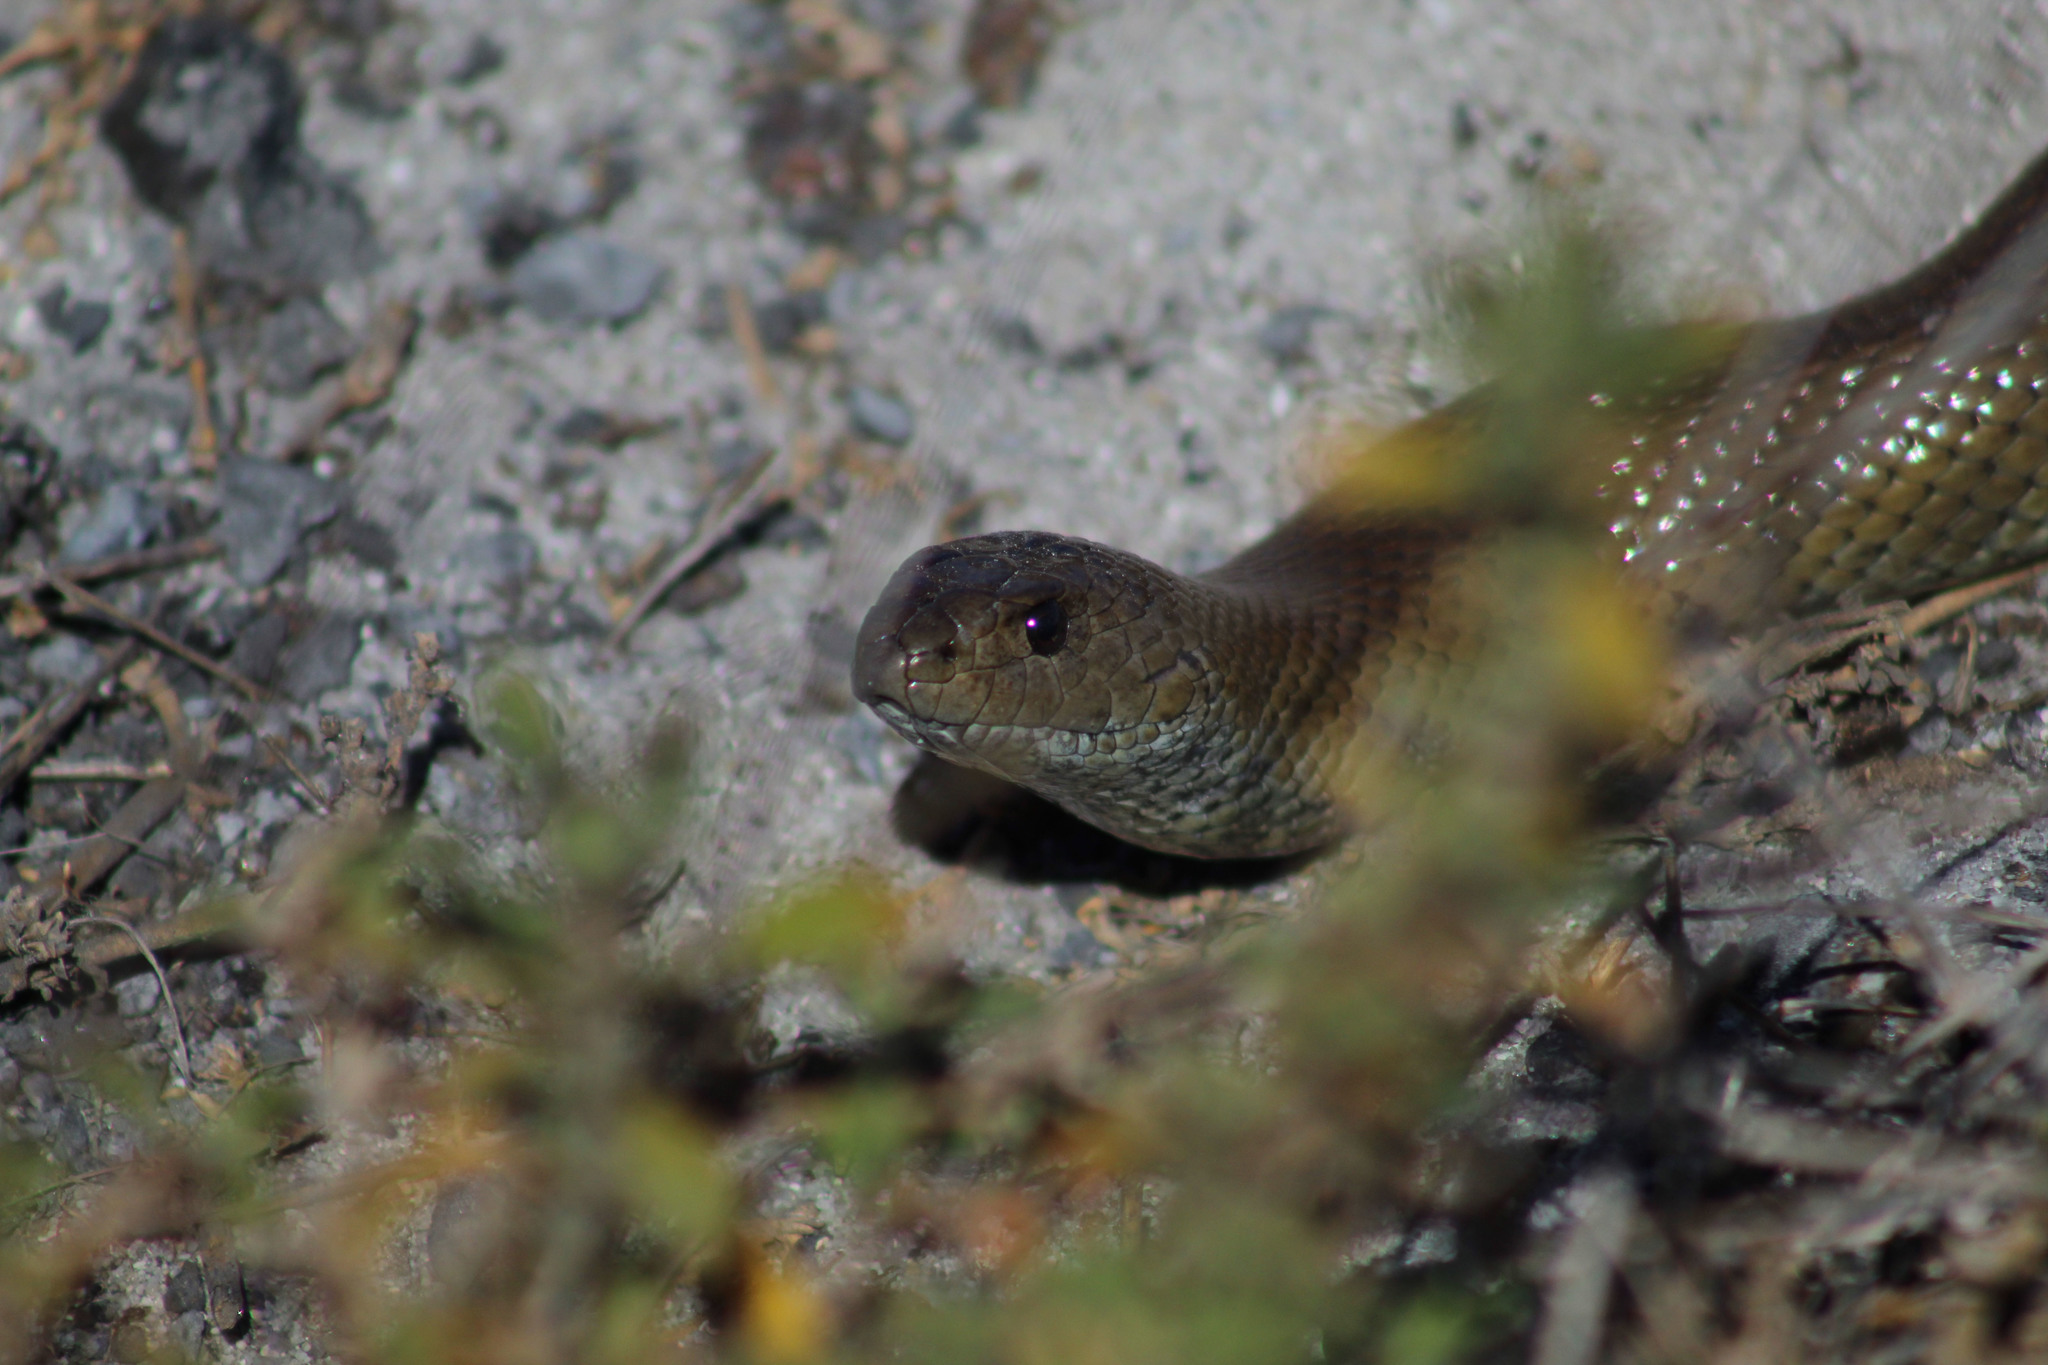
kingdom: Animalia
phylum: Chordata
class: Squamata
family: Pseudaspididae
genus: Pseudaspis
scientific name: Pseudaspis cana
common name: Mole snake
